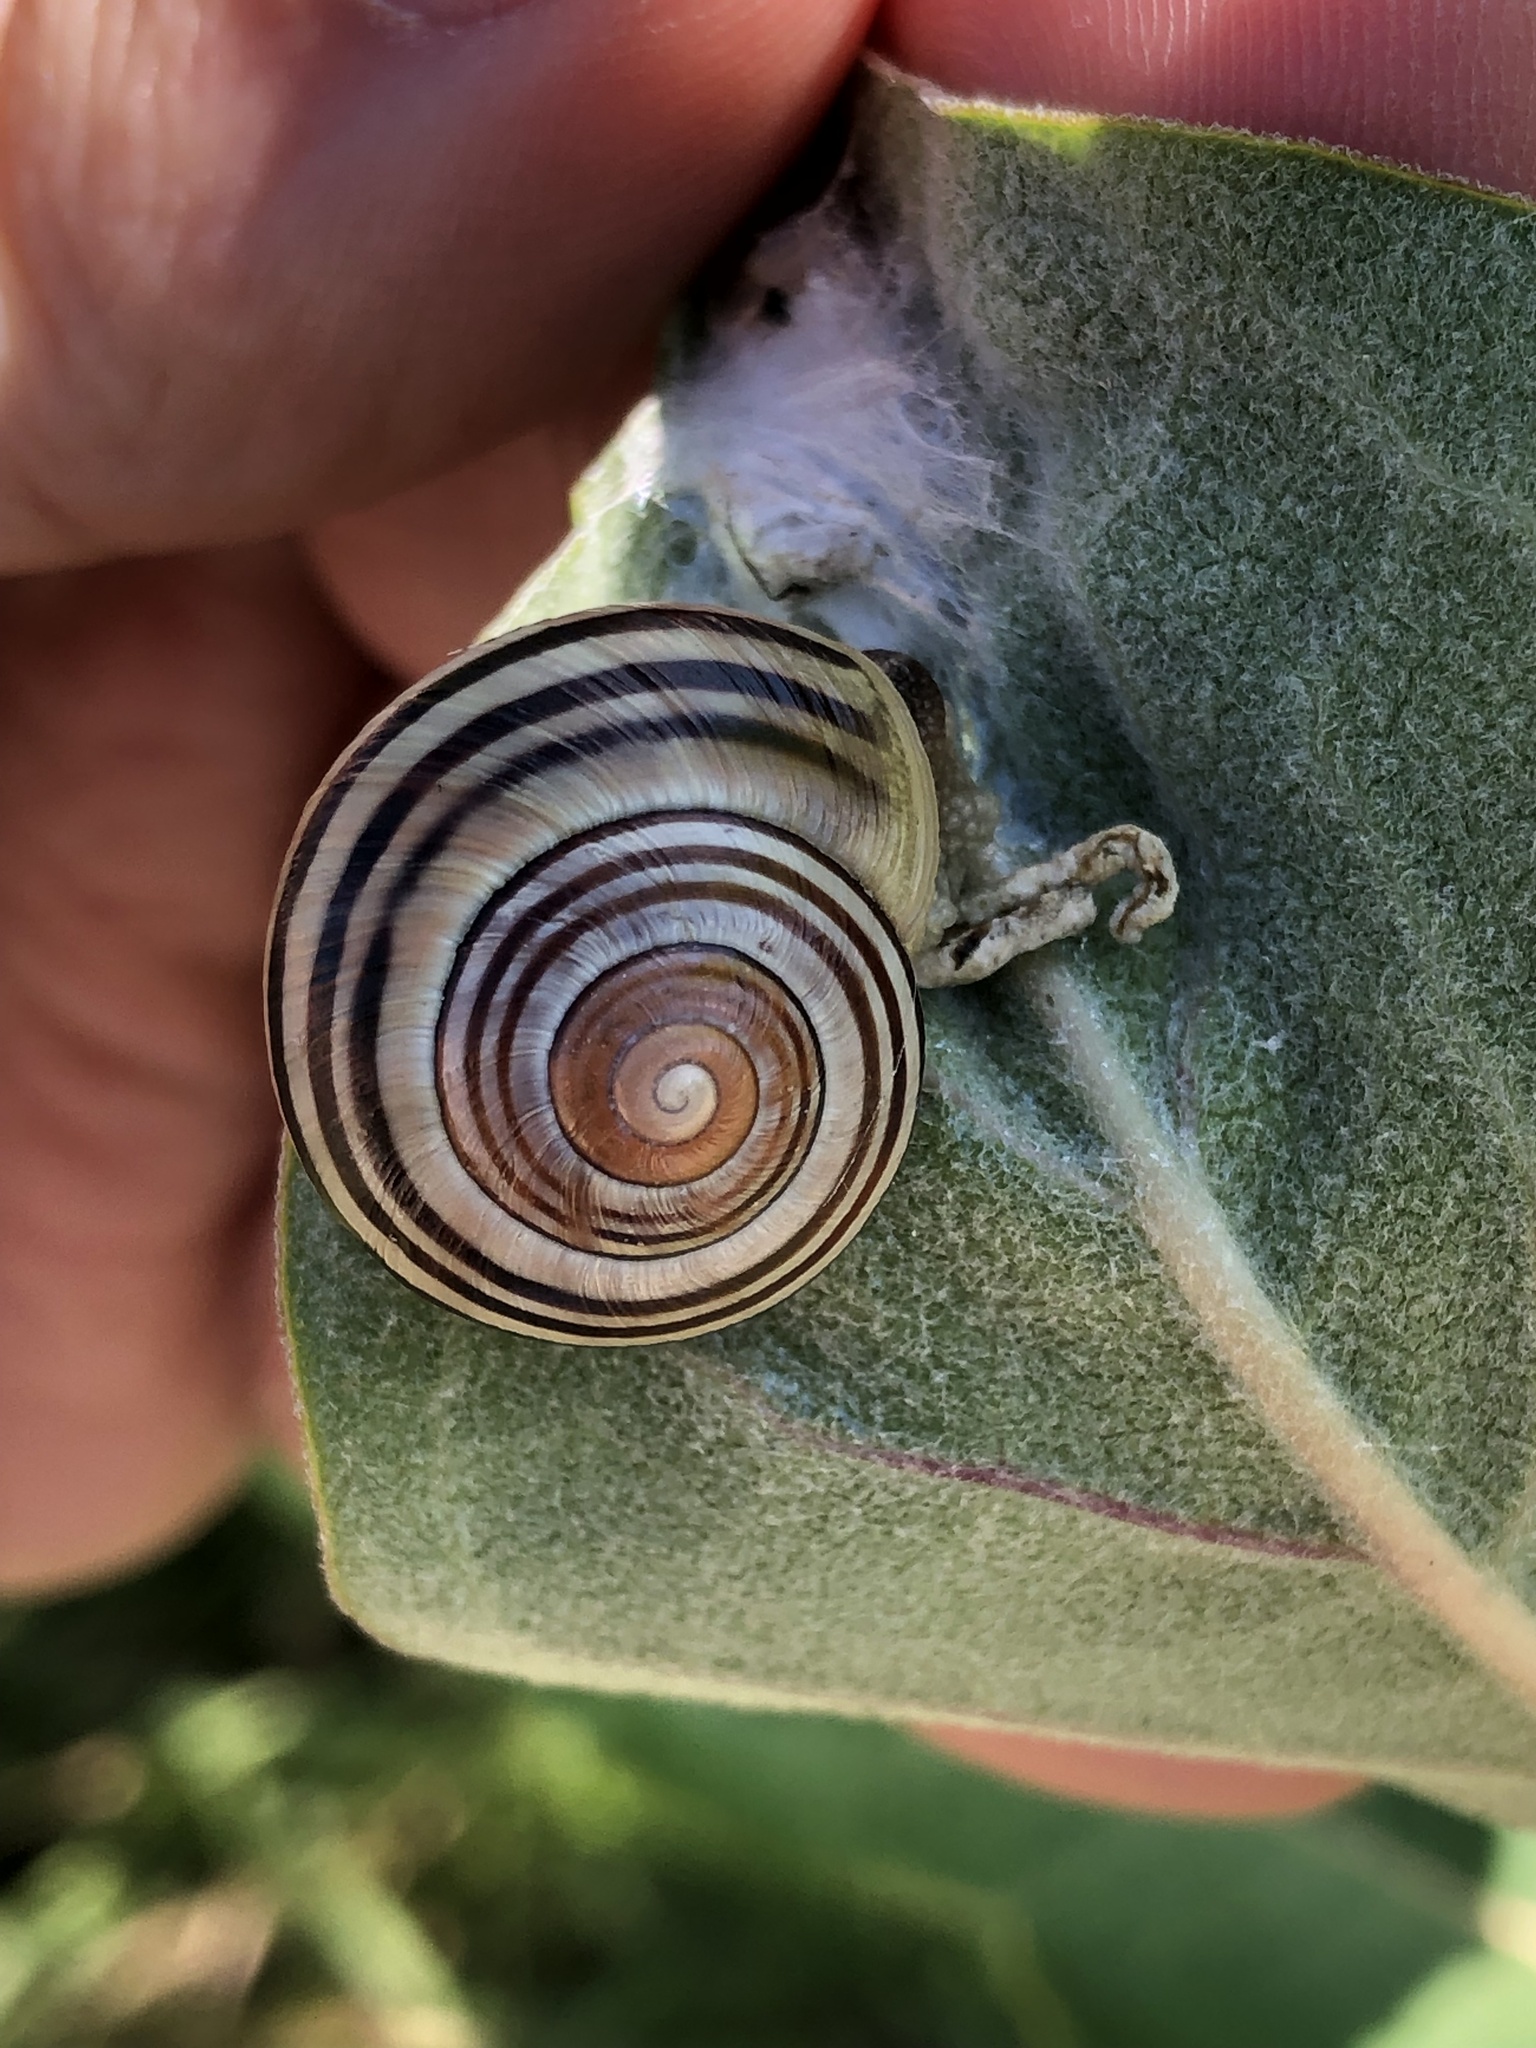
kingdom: Animalia
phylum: Mollusca
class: Gastropoda
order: Stylommatophora
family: Helicidae
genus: Cepaea
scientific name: Cepaea nemoralis
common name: Grovesnail
